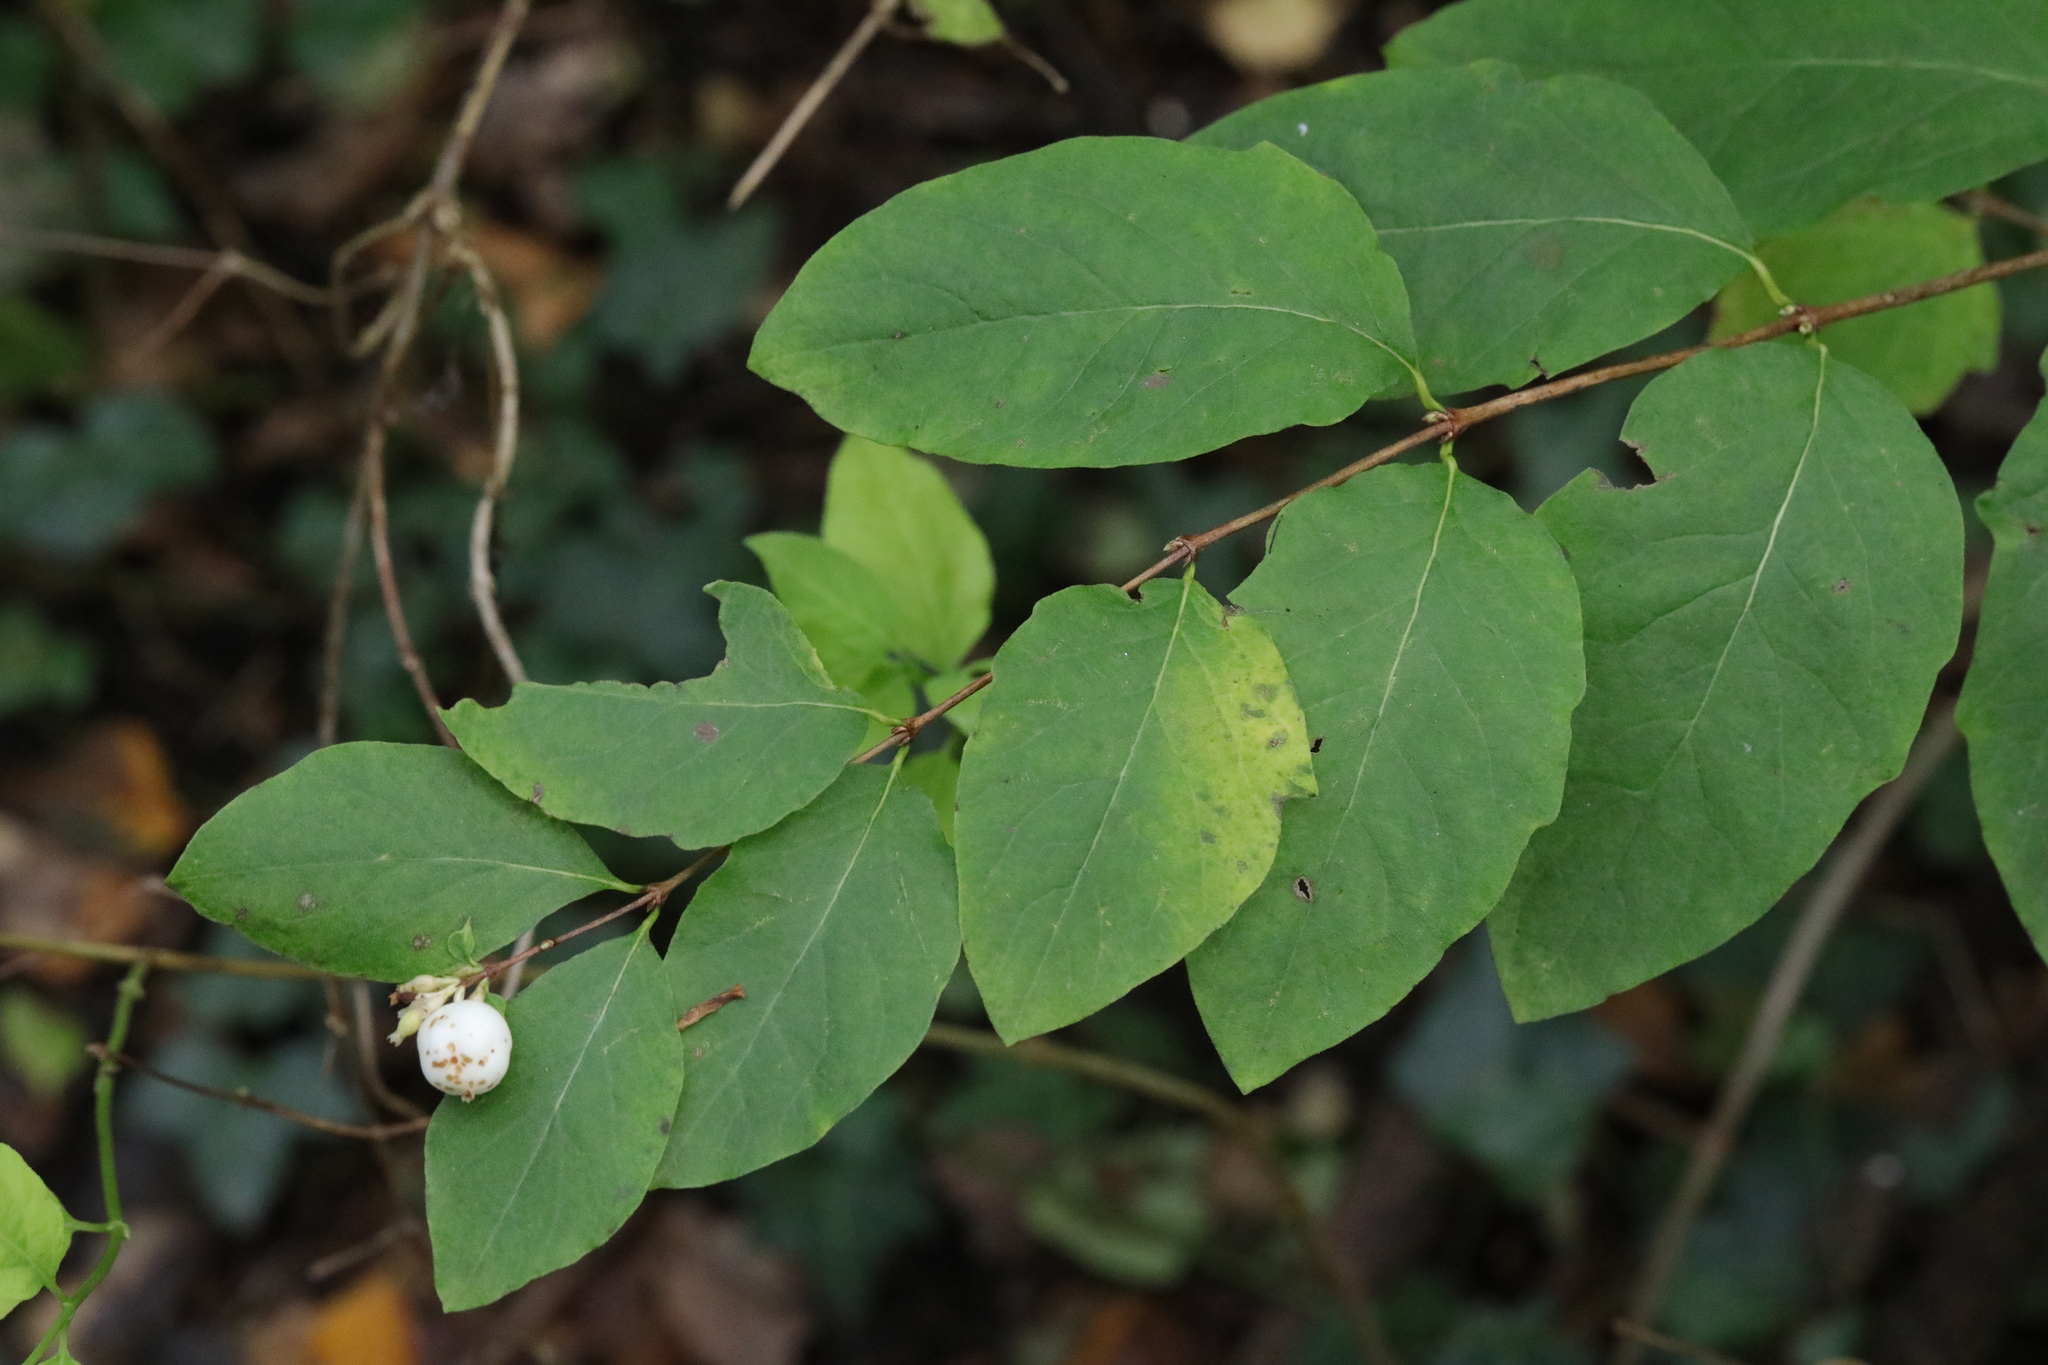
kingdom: Plantae
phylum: Tracheophyta
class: Magnoliopsida
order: Dipsacales
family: Caprifoliaceae
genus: Symphoricarpos
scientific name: Symphoricarpos albus
